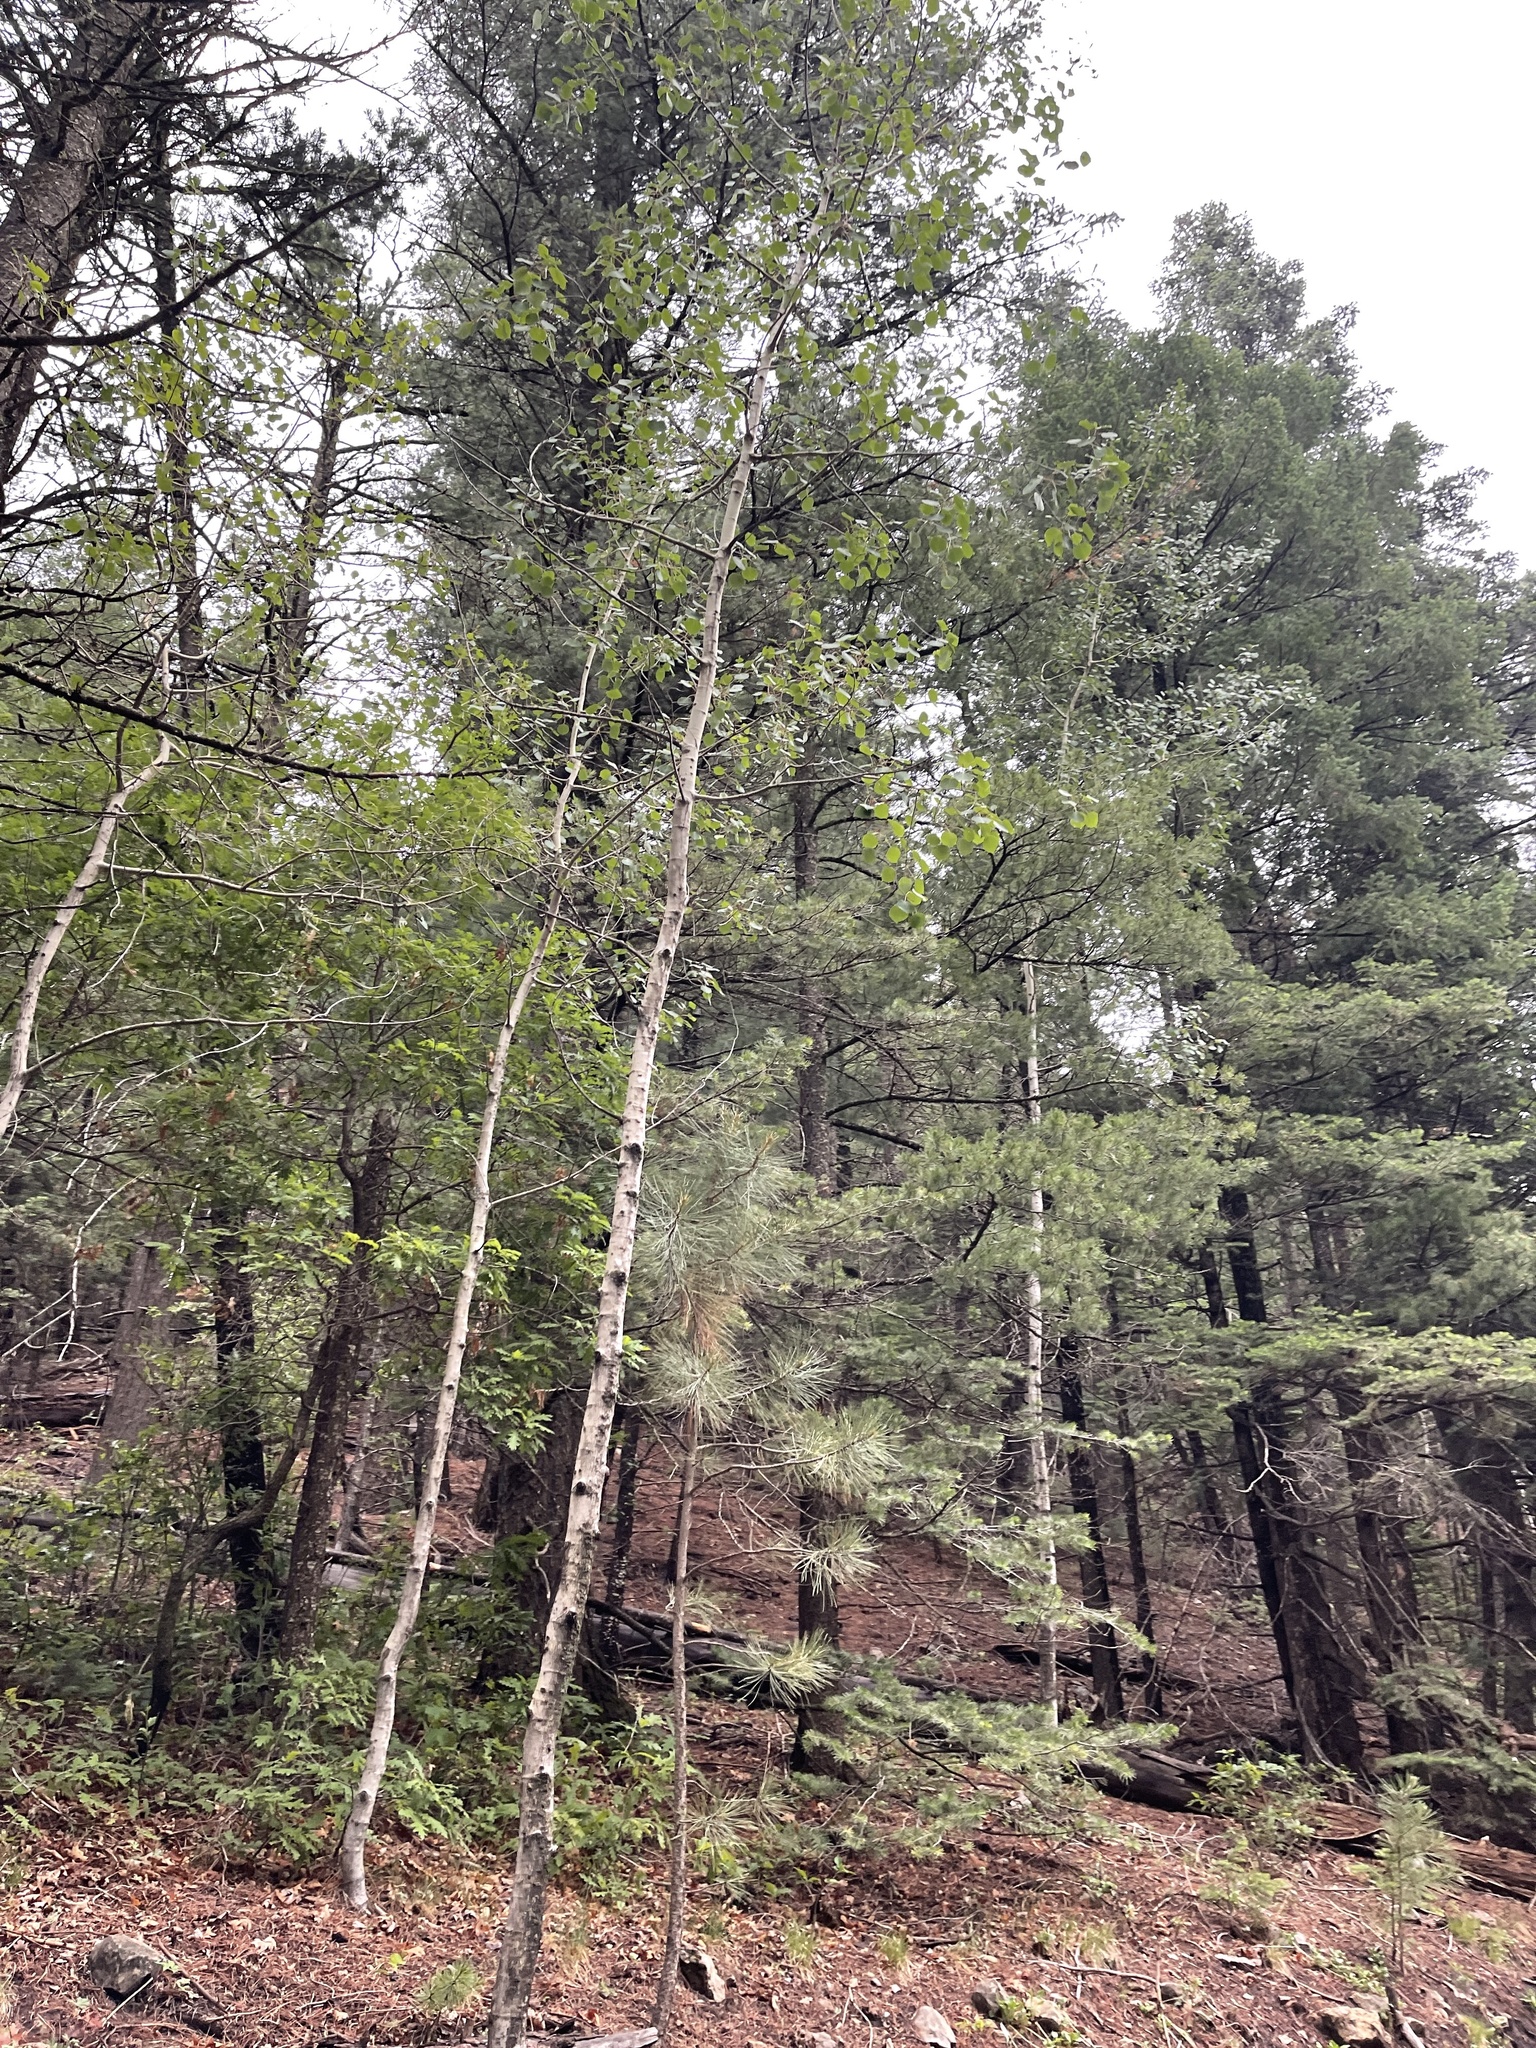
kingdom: Plantae
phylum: Tracheophyta
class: Magnoliopsida
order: Malpighiales
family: Salicaceae
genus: Populus
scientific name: Populus tremuloides
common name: Quaking aspen
